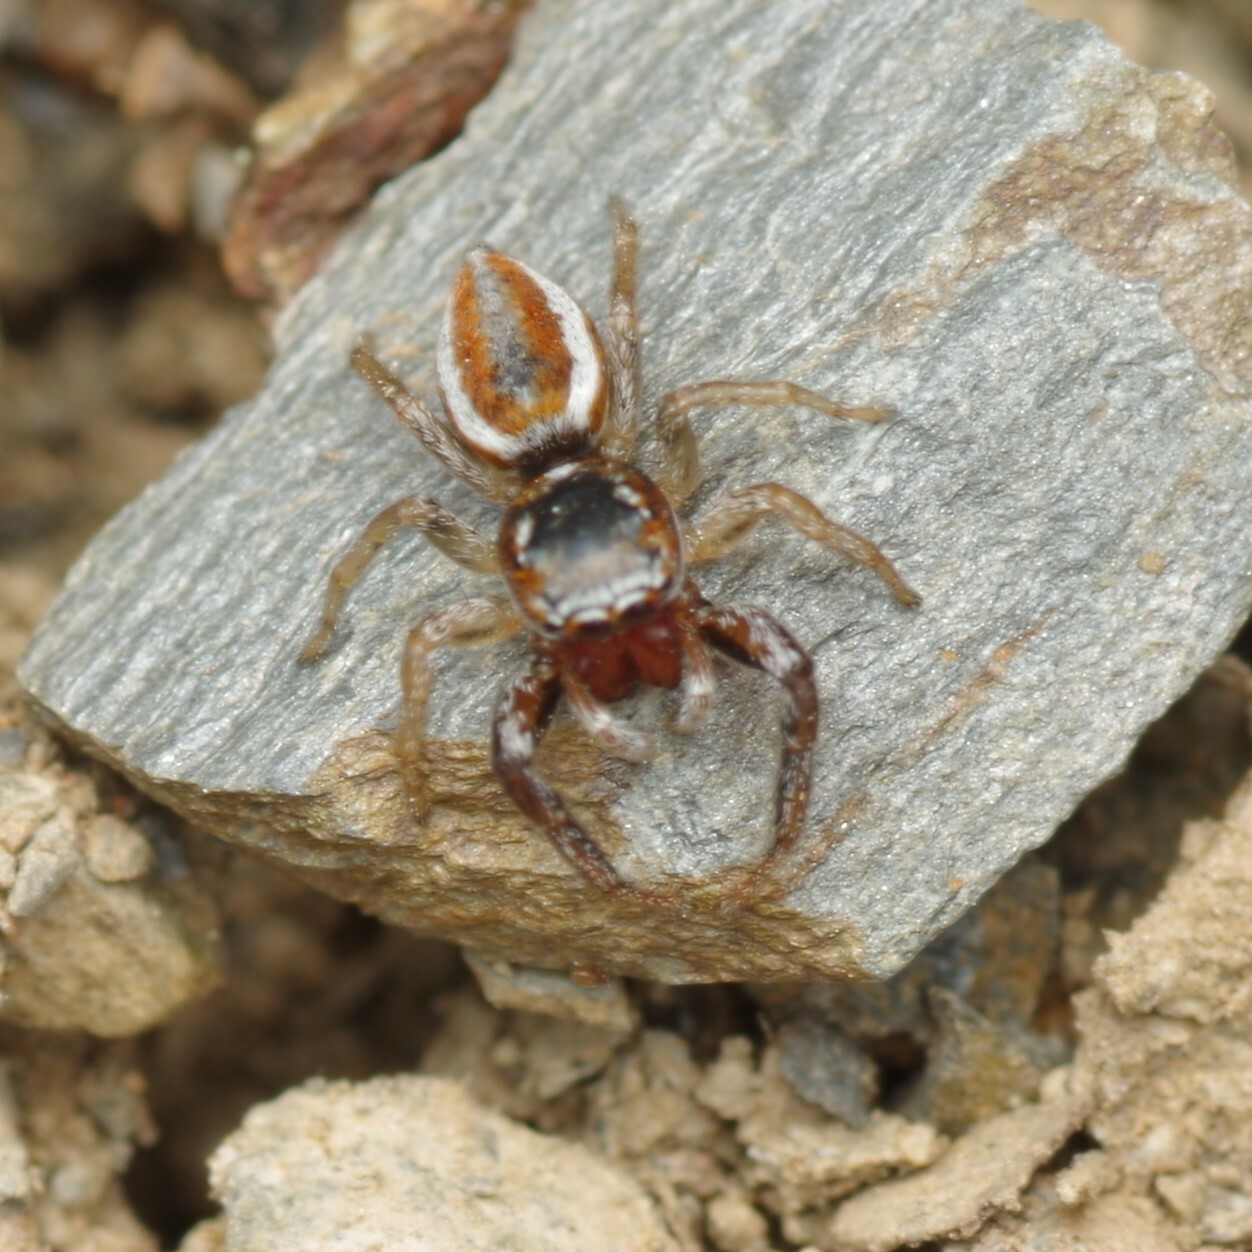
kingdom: Animalia
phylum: Arthropoda
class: Arachnida
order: Araneae
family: Salticidae
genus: Icius
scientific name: Icius hamatus
